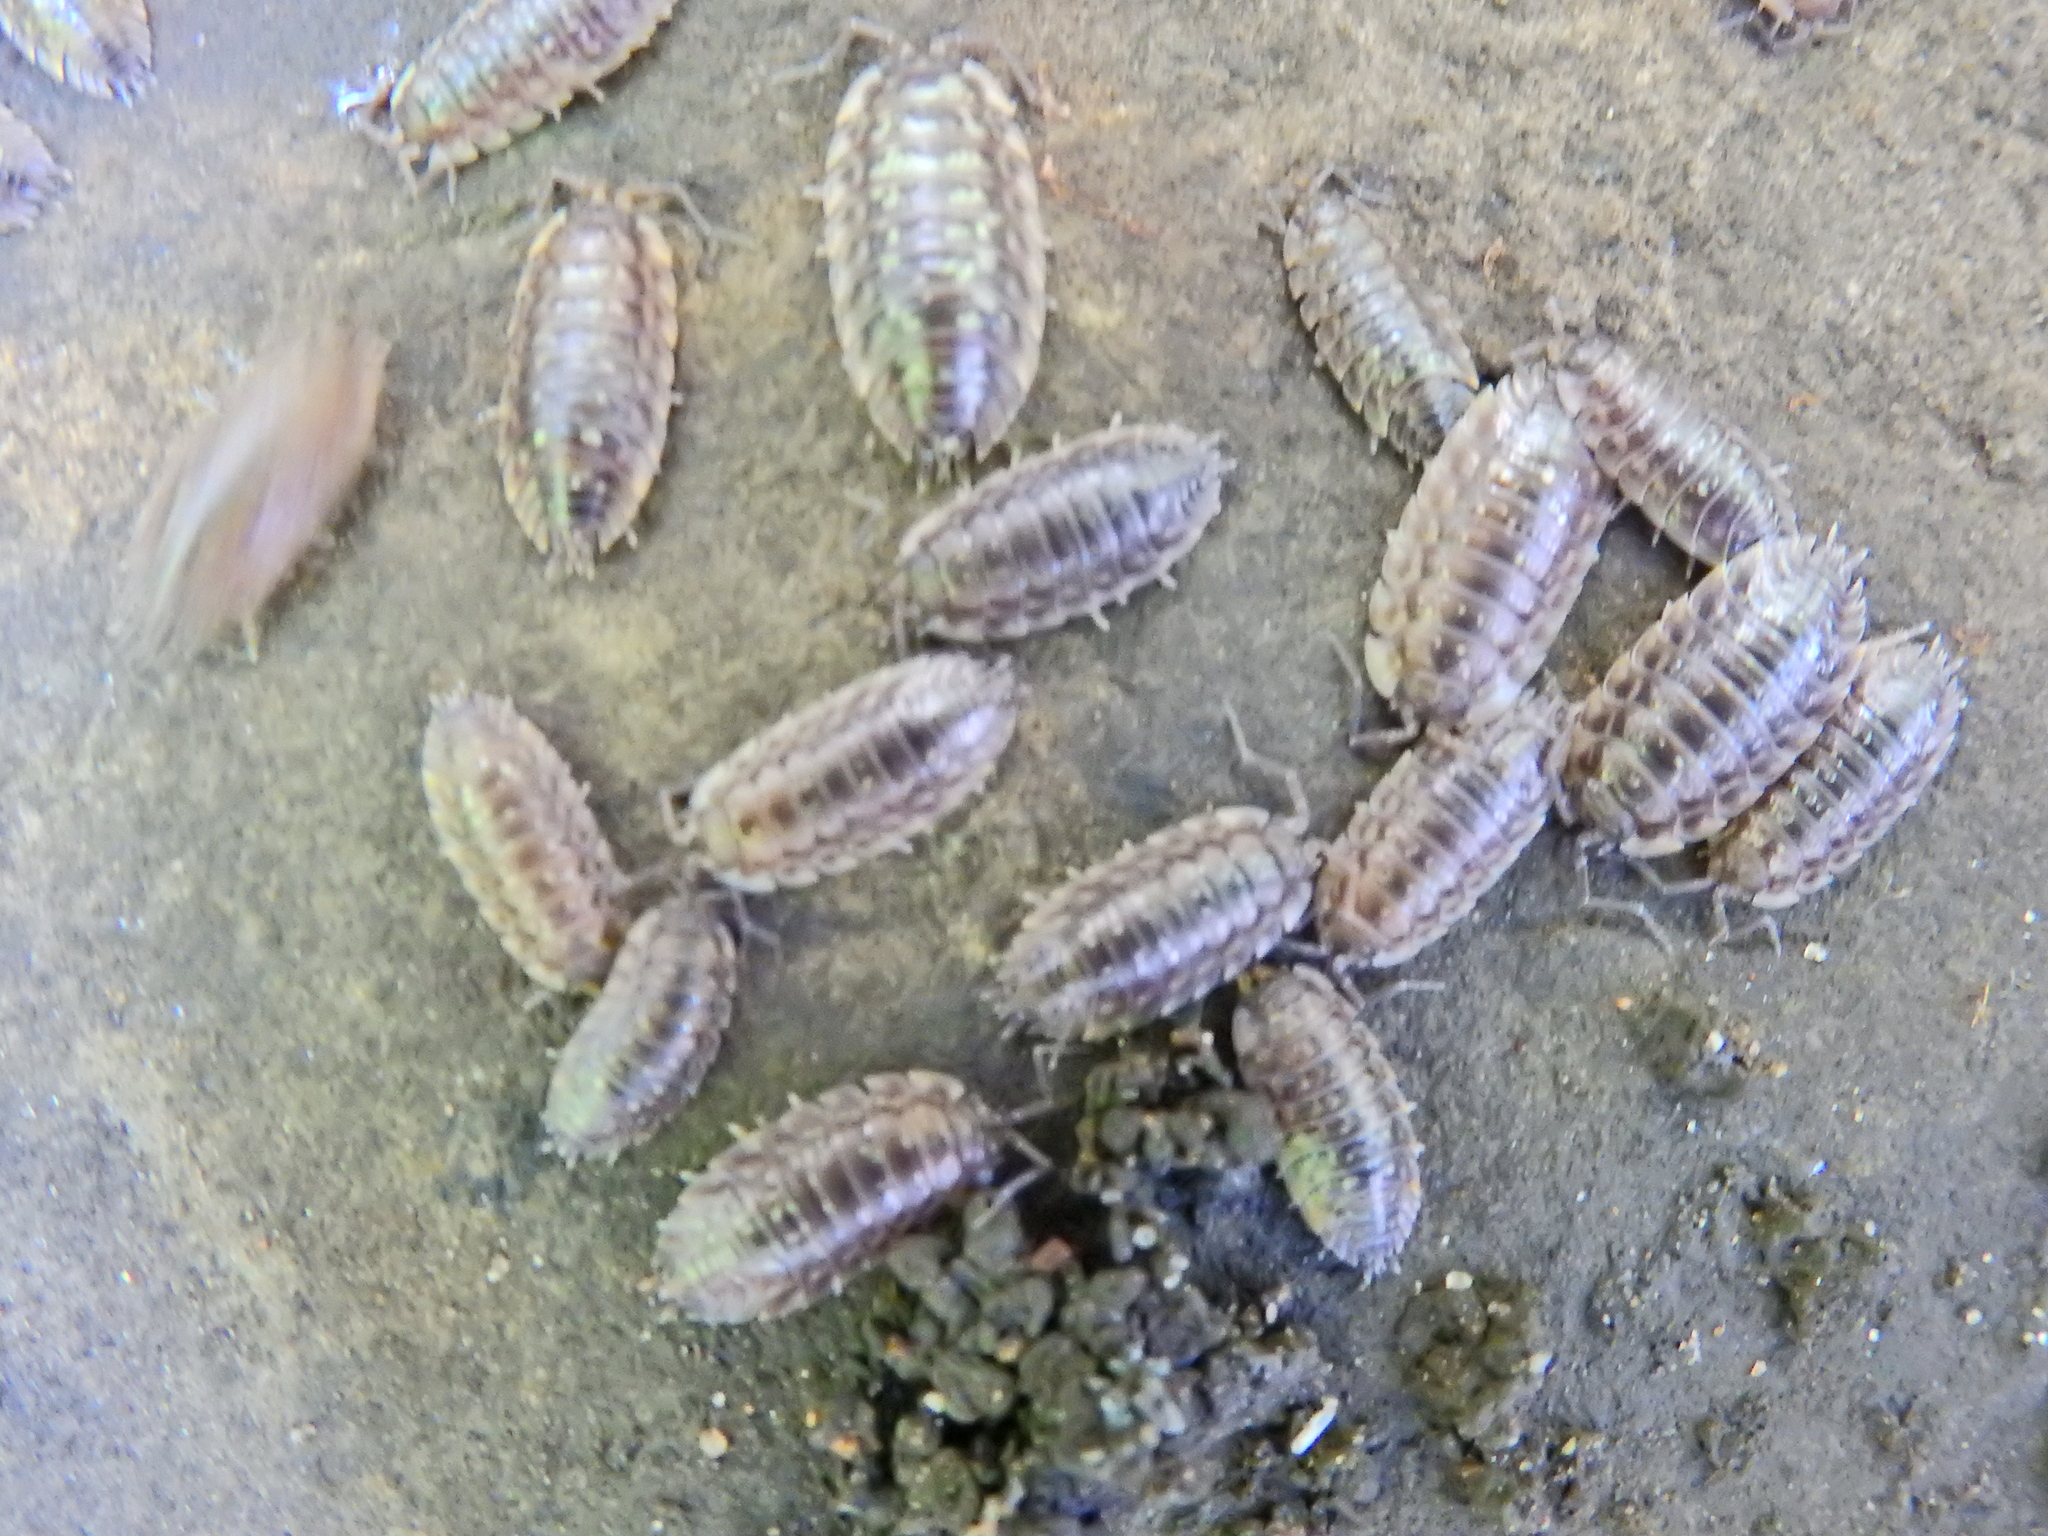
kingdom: Animalia
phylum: Arthropoda
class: Malacostraca
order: Isopoda
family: Oniscidae
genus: Oniscus
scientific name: Oniscus asellus
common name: Common shiny woodlouse
